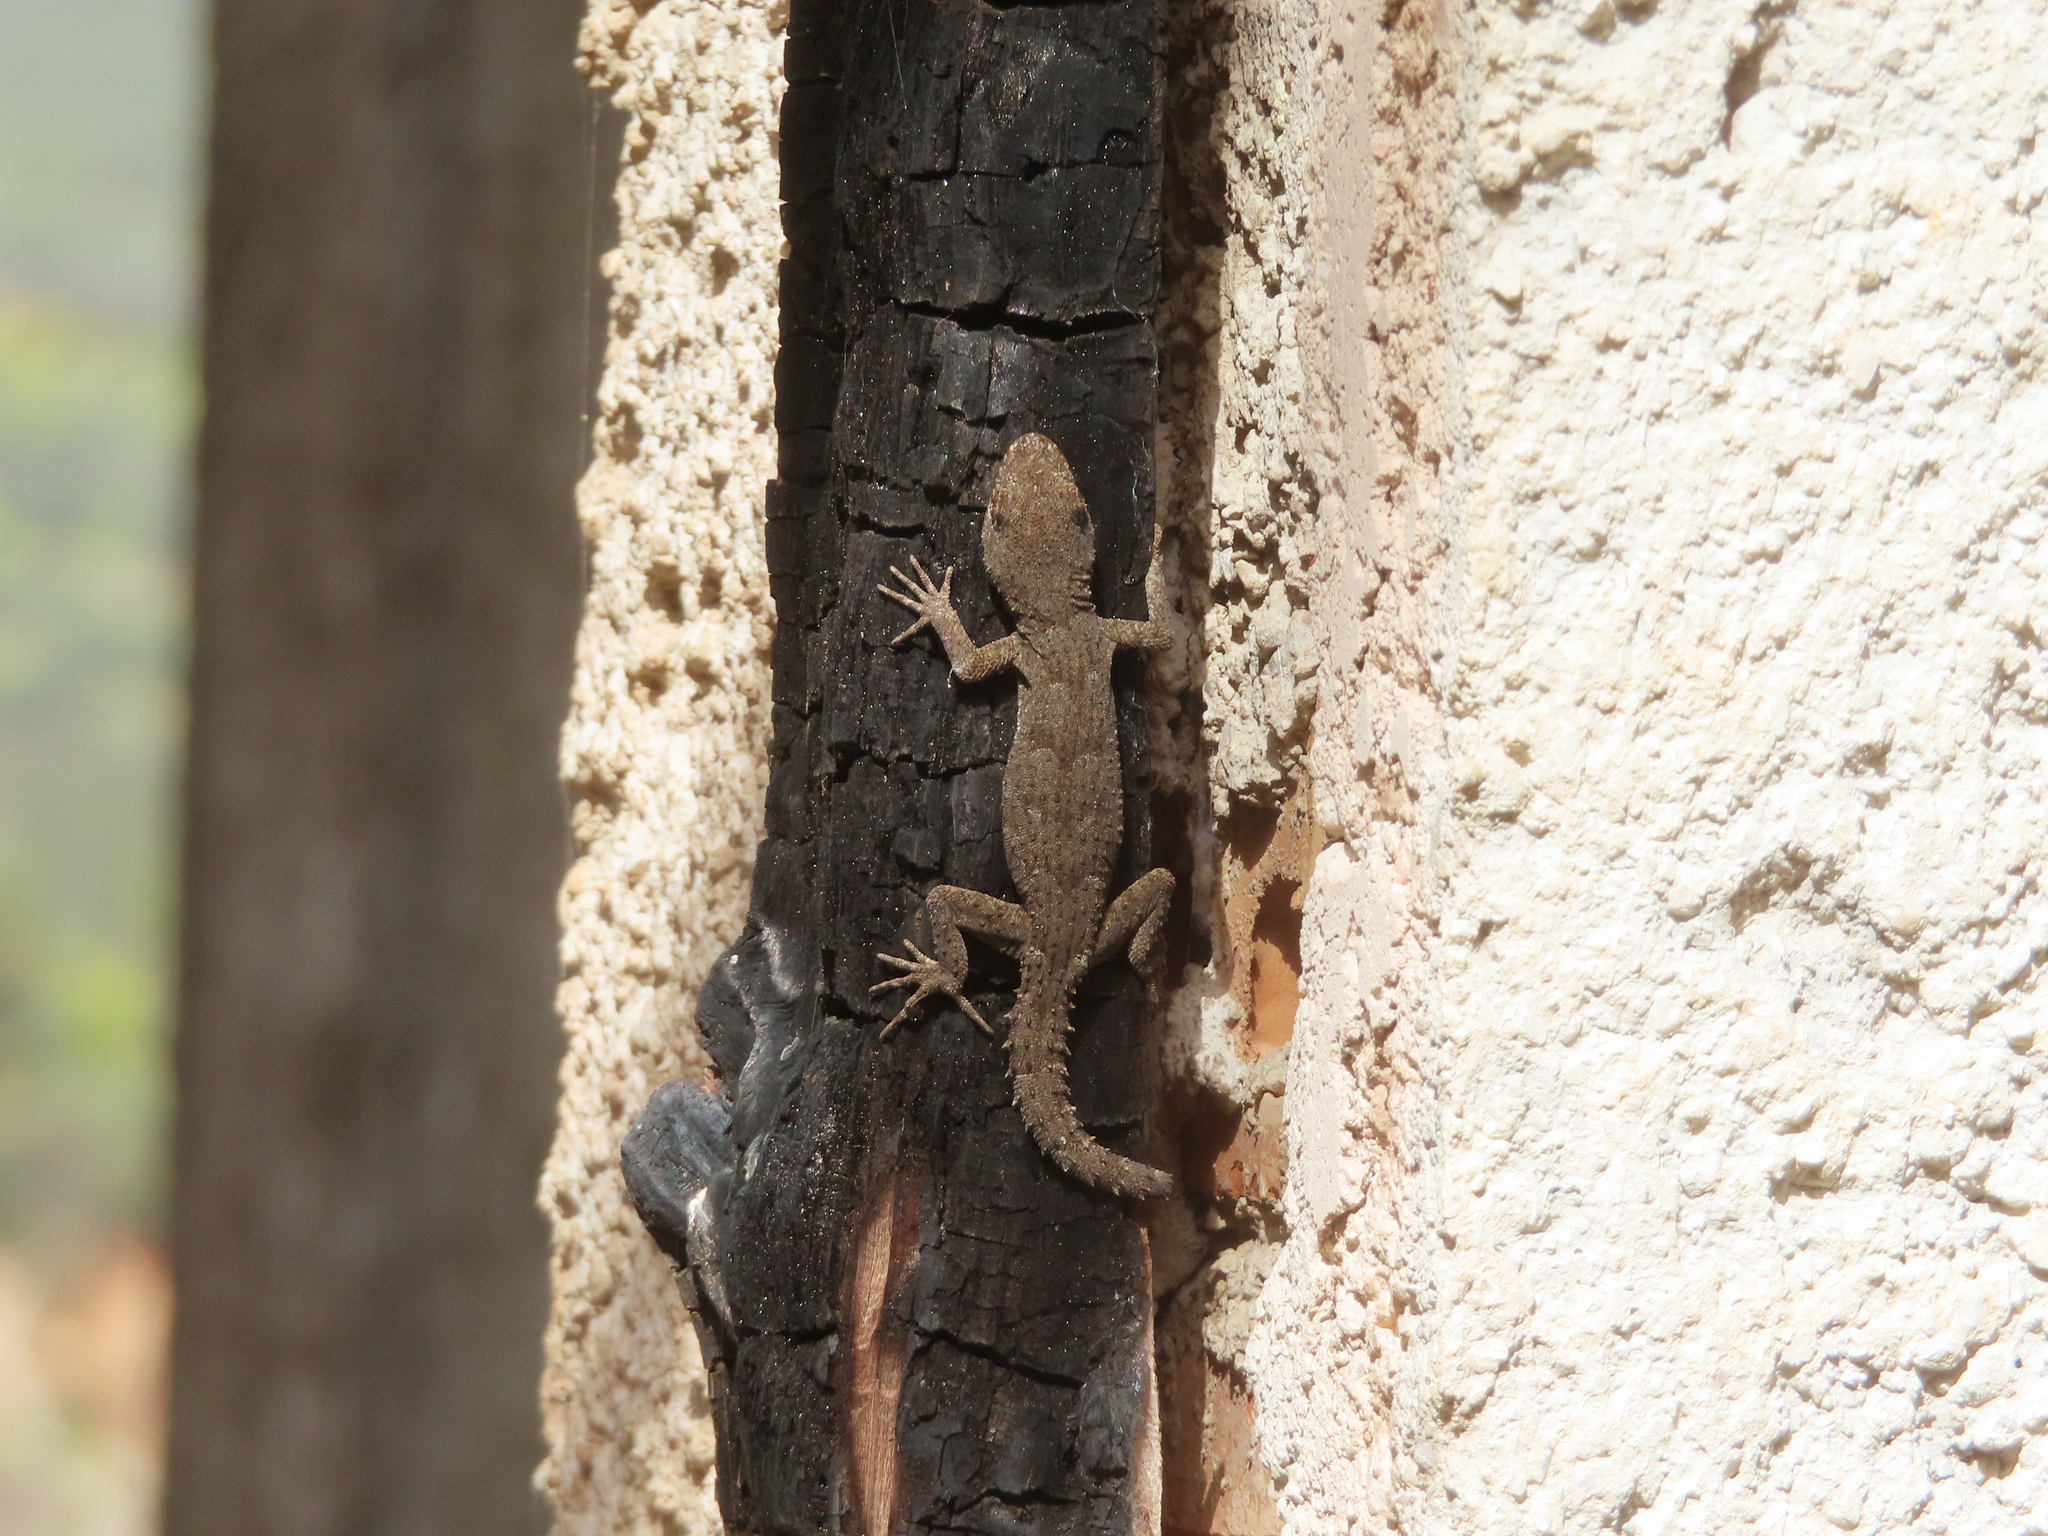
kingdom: Animalia
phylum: Chordata
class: Squamata
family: Gekkonidae
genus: Mediodactylus
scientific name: Mediodactylus kotschyi
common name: Kotschy's gecko
